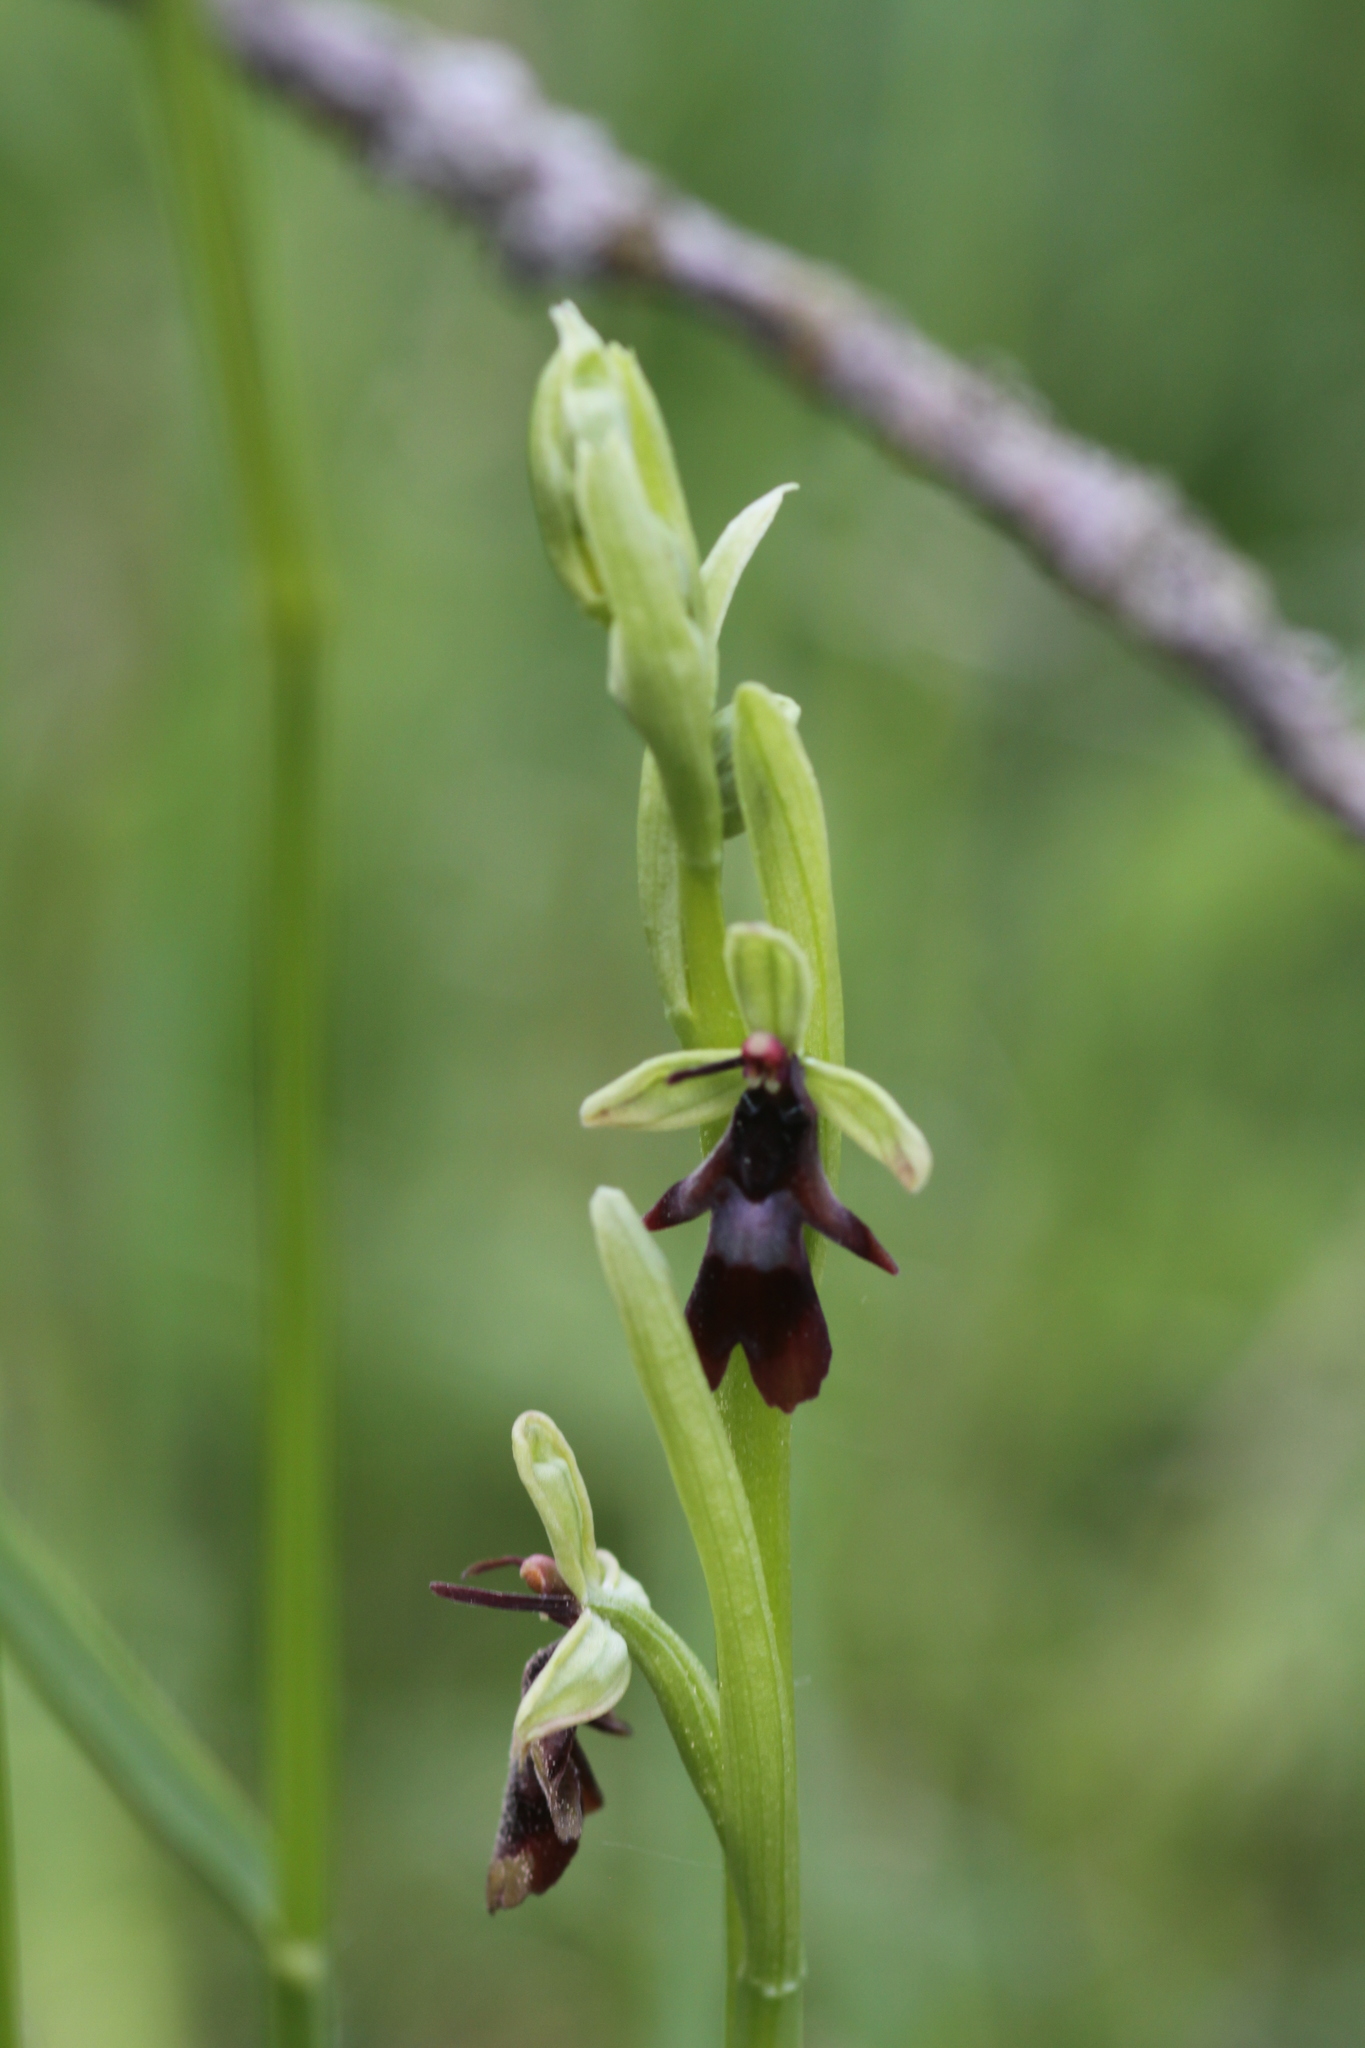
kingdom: Plantae
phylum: Tracheophyta
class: Liliopsida
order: Asparagales
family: Orchidaceae
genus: Ophrys
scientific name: Ophrys insectifera
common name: Fly orchid
